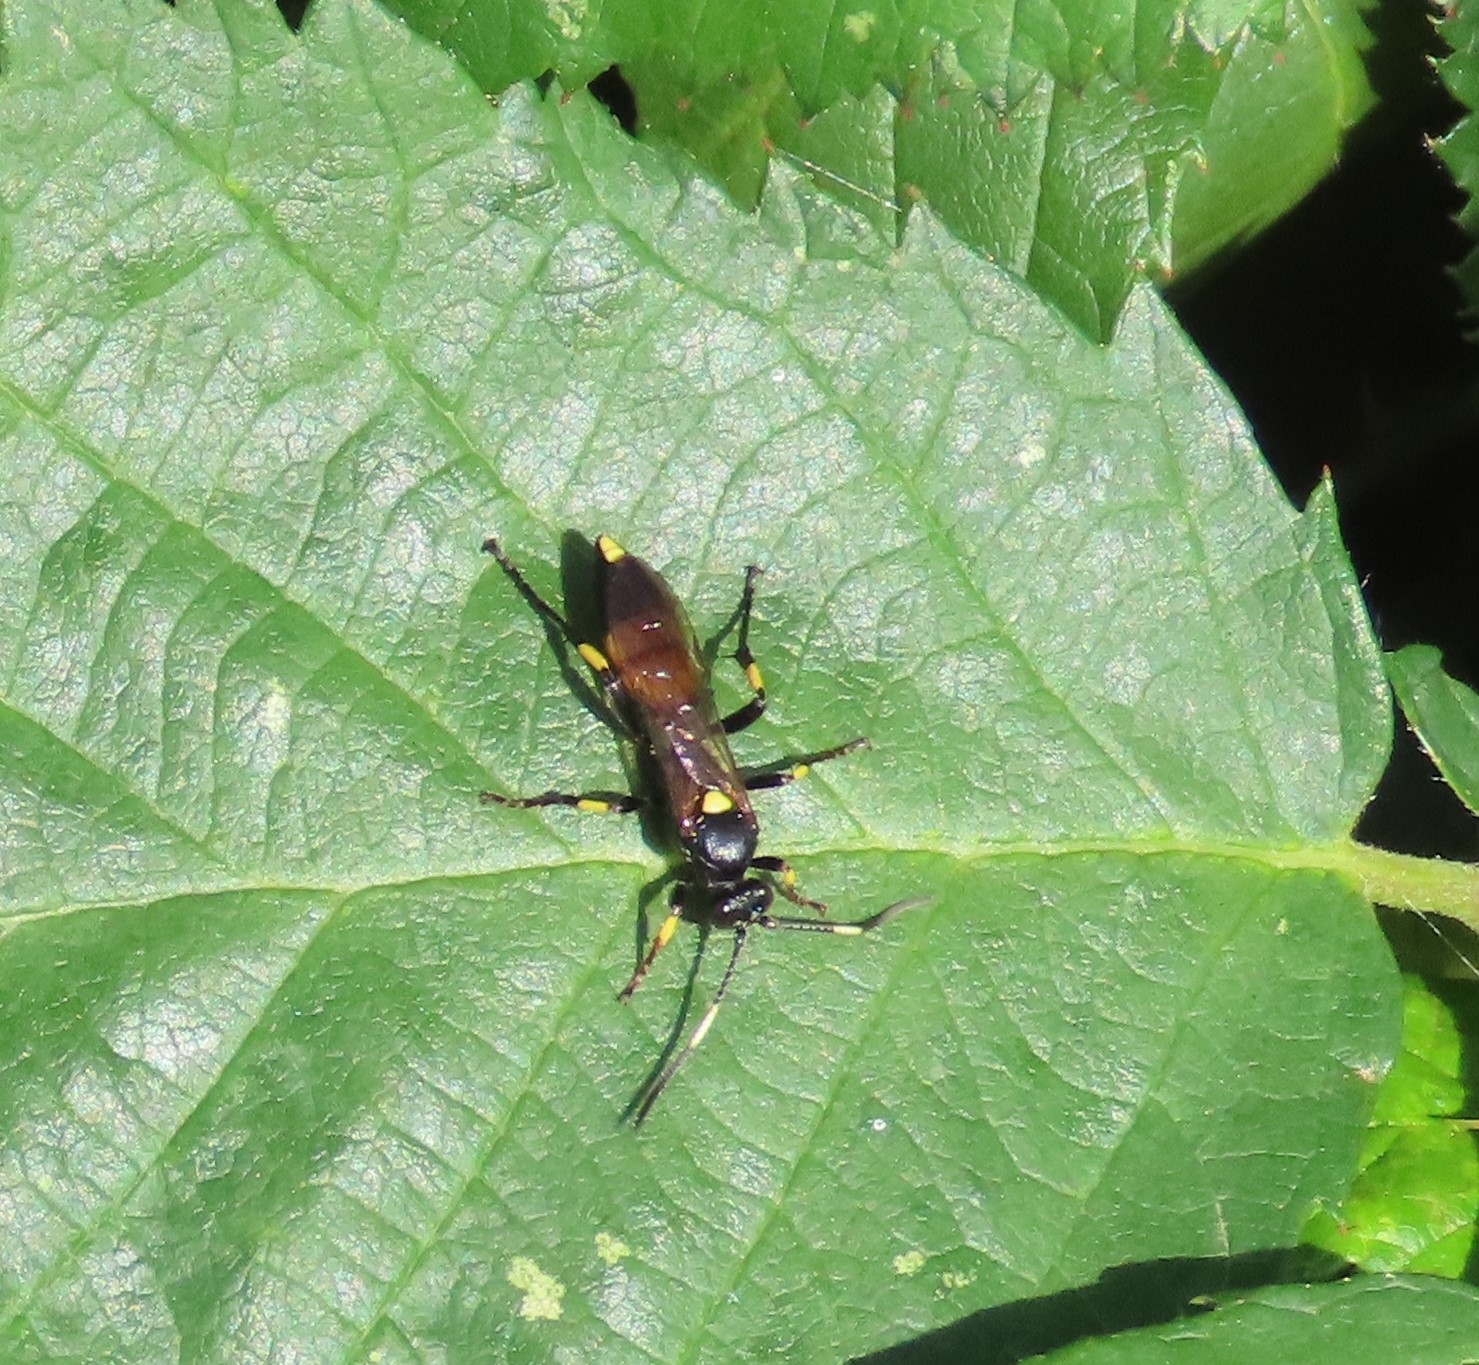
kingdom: Animalia
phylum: Arthropoda
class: Insecta
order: Hymenoptera
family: Ichneumonidae
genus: Ichneumon
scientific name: Ichneumon stramentor
